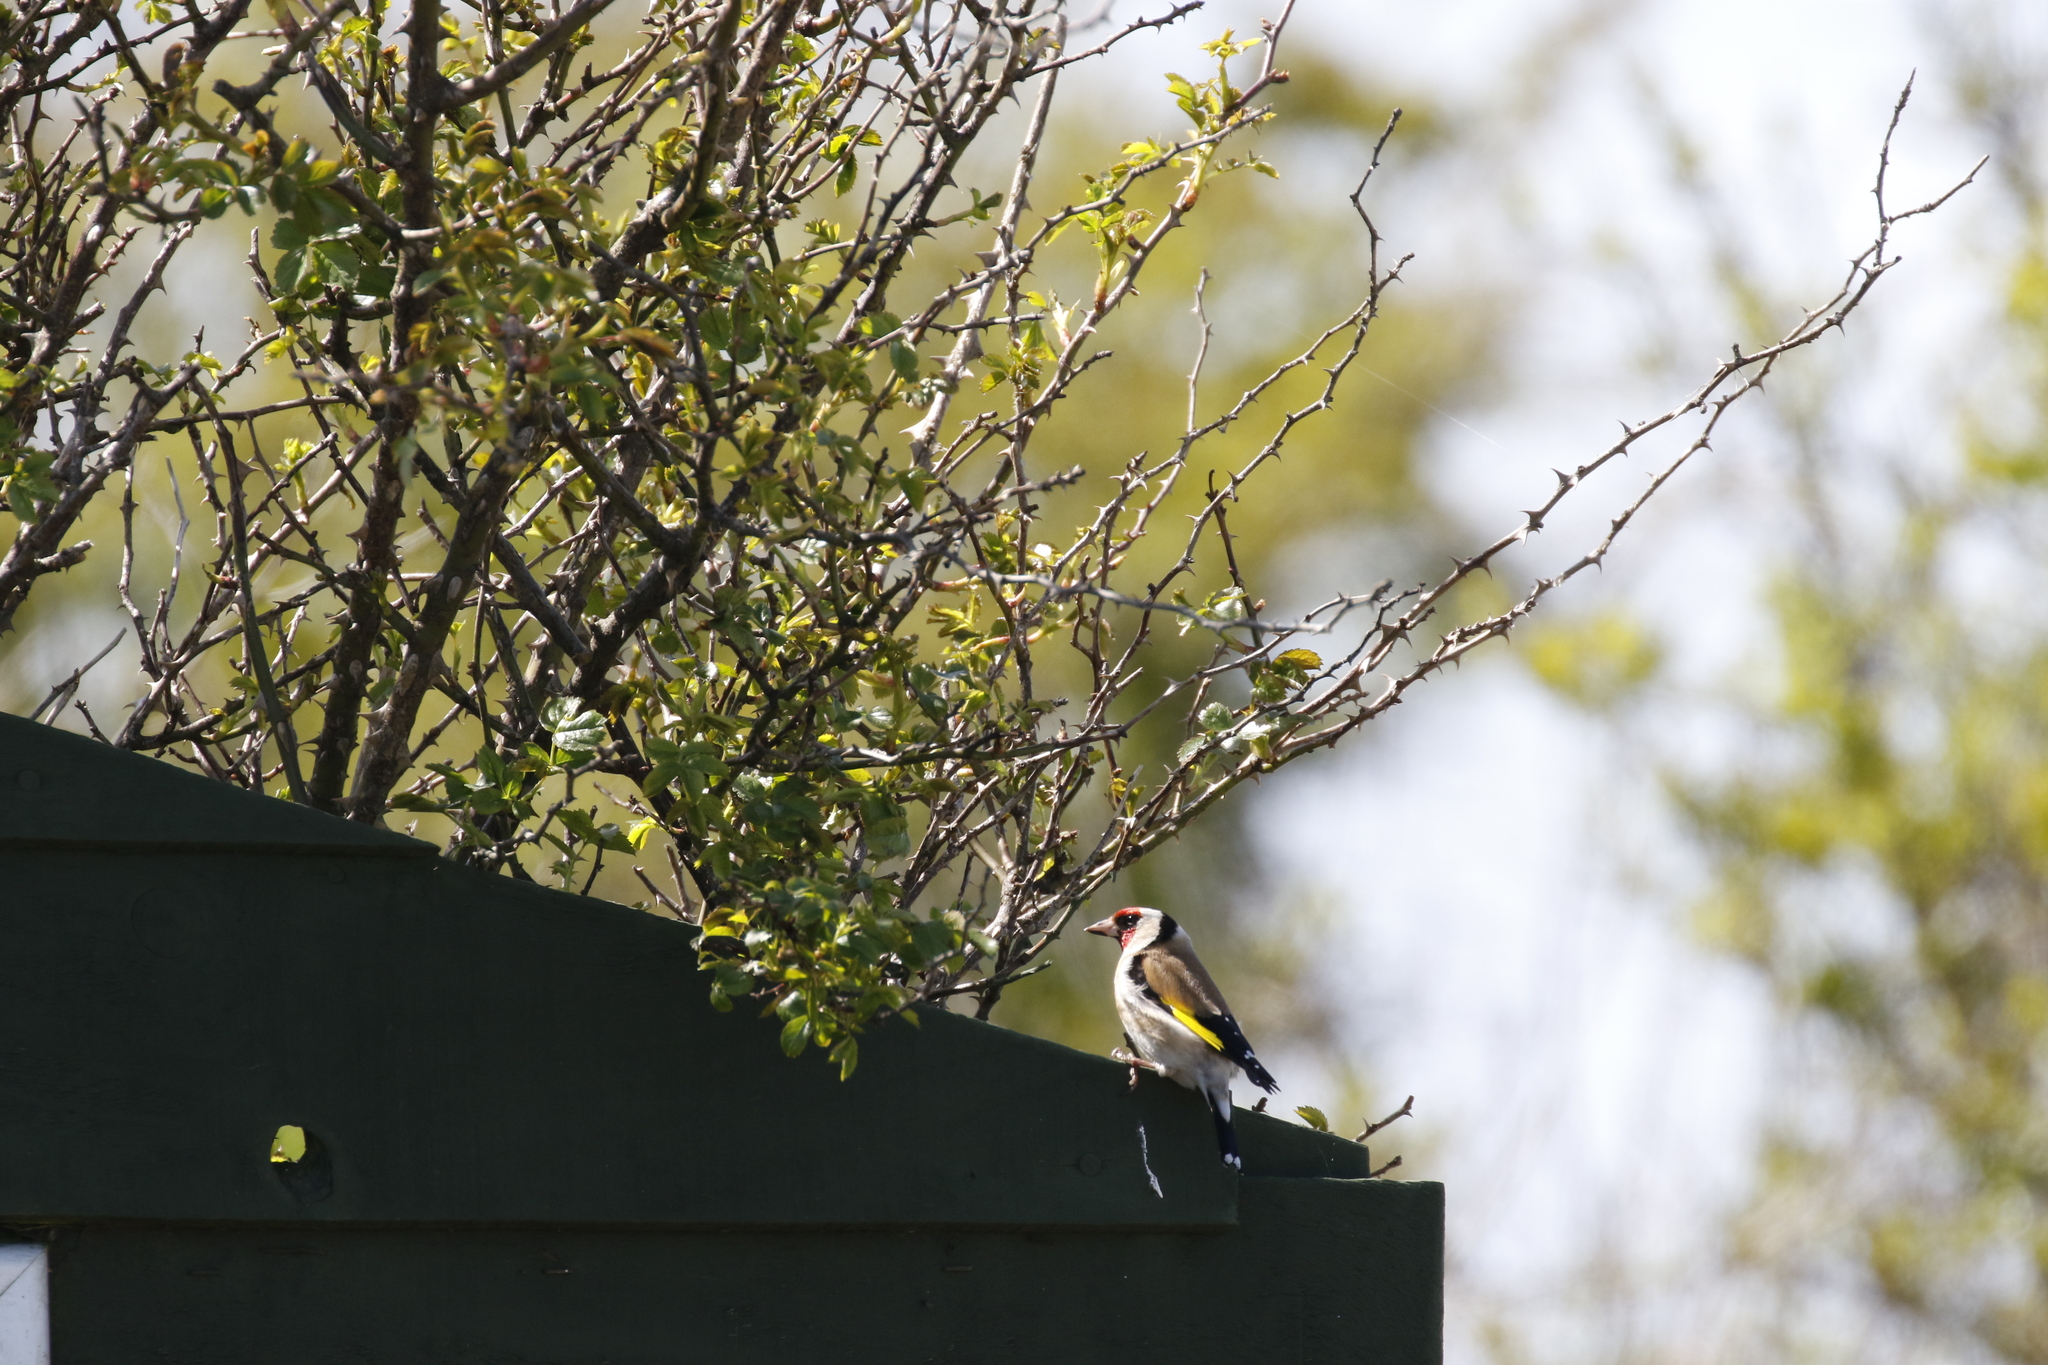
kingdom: Animalia
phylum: Chordata
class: Aves
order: Passeriformes
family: Fringillidae
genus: Carduelis
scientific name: Carduelis carduelis
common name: European goldfinch
